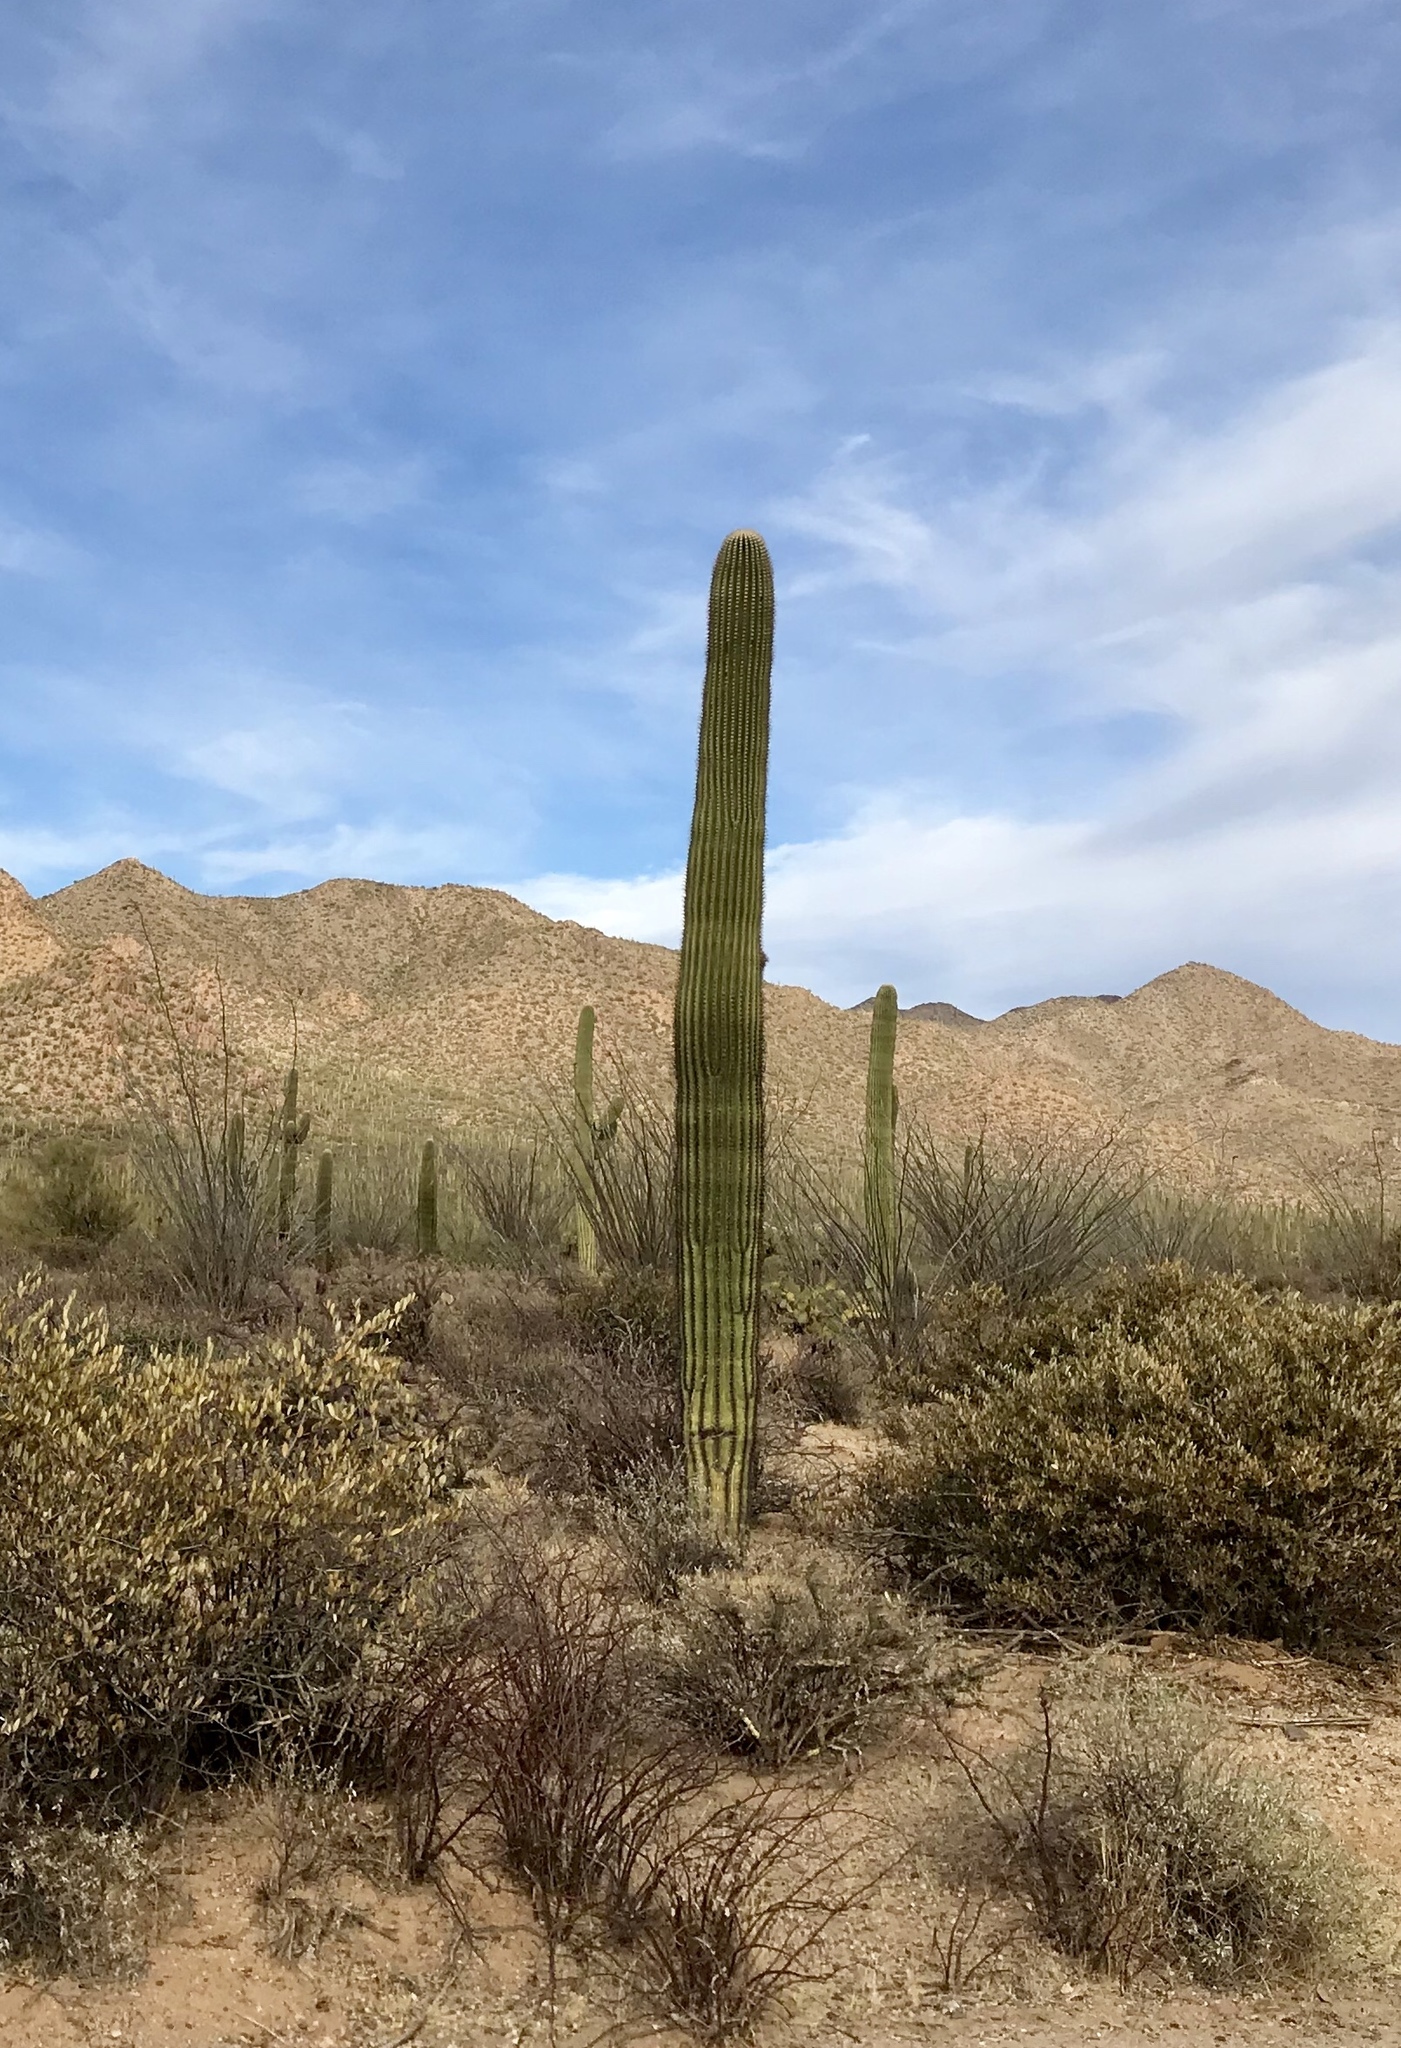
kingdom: Plantae
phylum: Tracheophyta
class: Magnoliopsida
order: Caryophyllales
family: Cactaceae
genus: Carnegiea
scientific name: Carnegiea gigantea
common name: Saguaro
